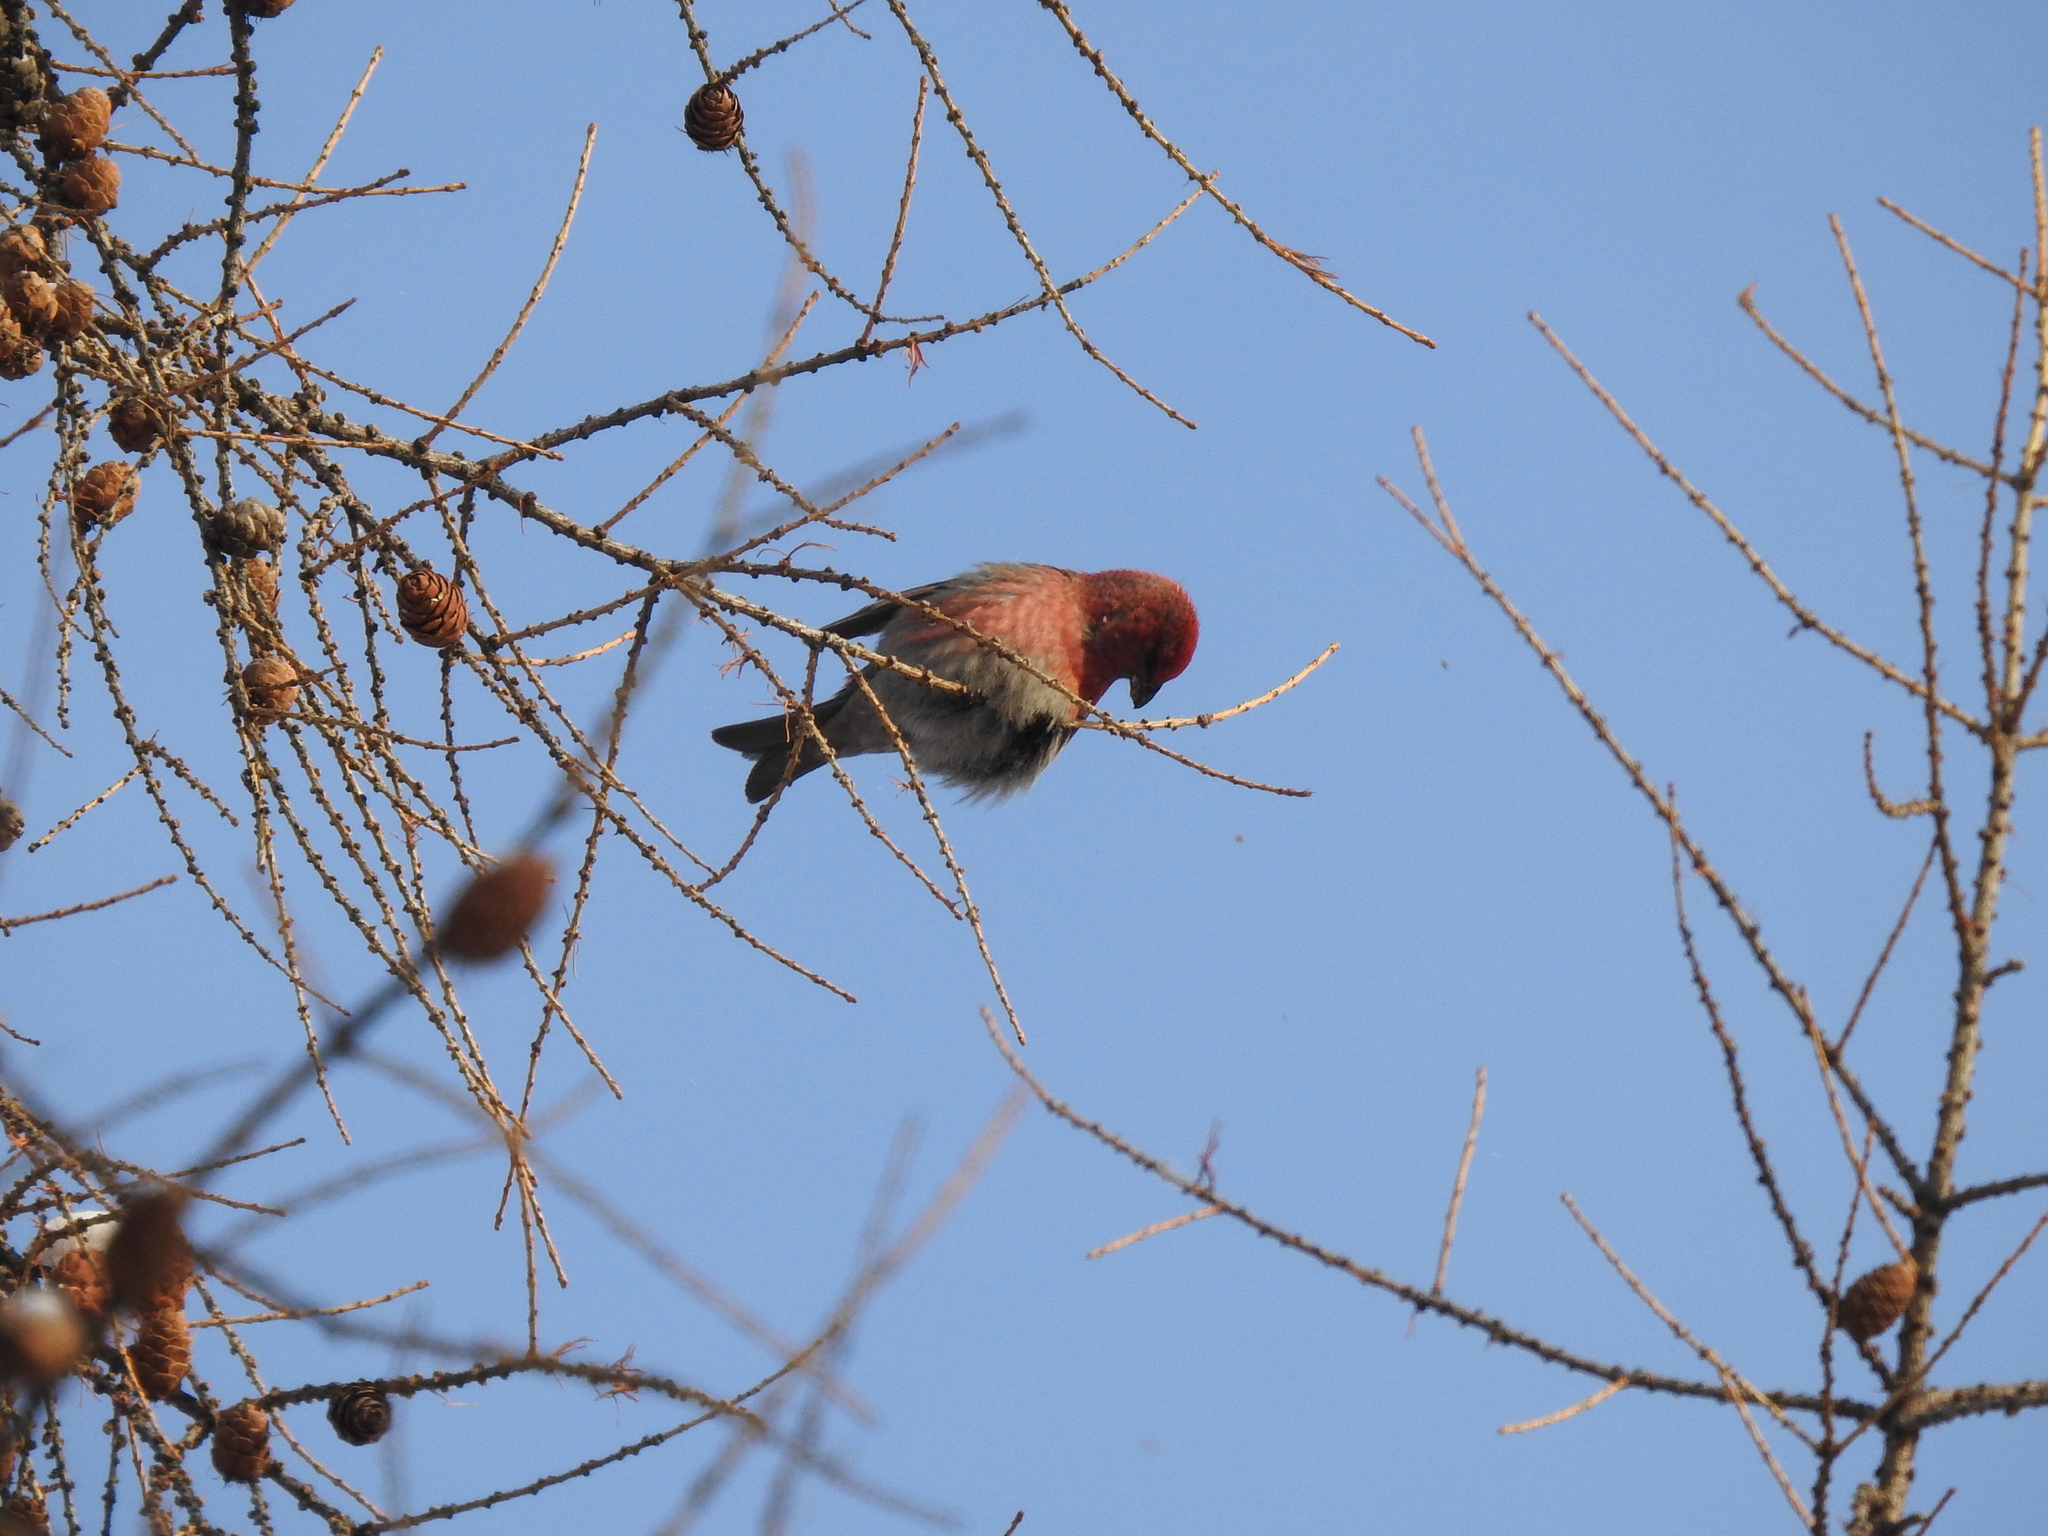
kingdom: Animalia
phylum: Chordata
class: Aves
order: Passeriformes
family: Fringillidae
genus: Pinicola
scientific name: Pinicola enucleator
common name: Pine grosbeak
